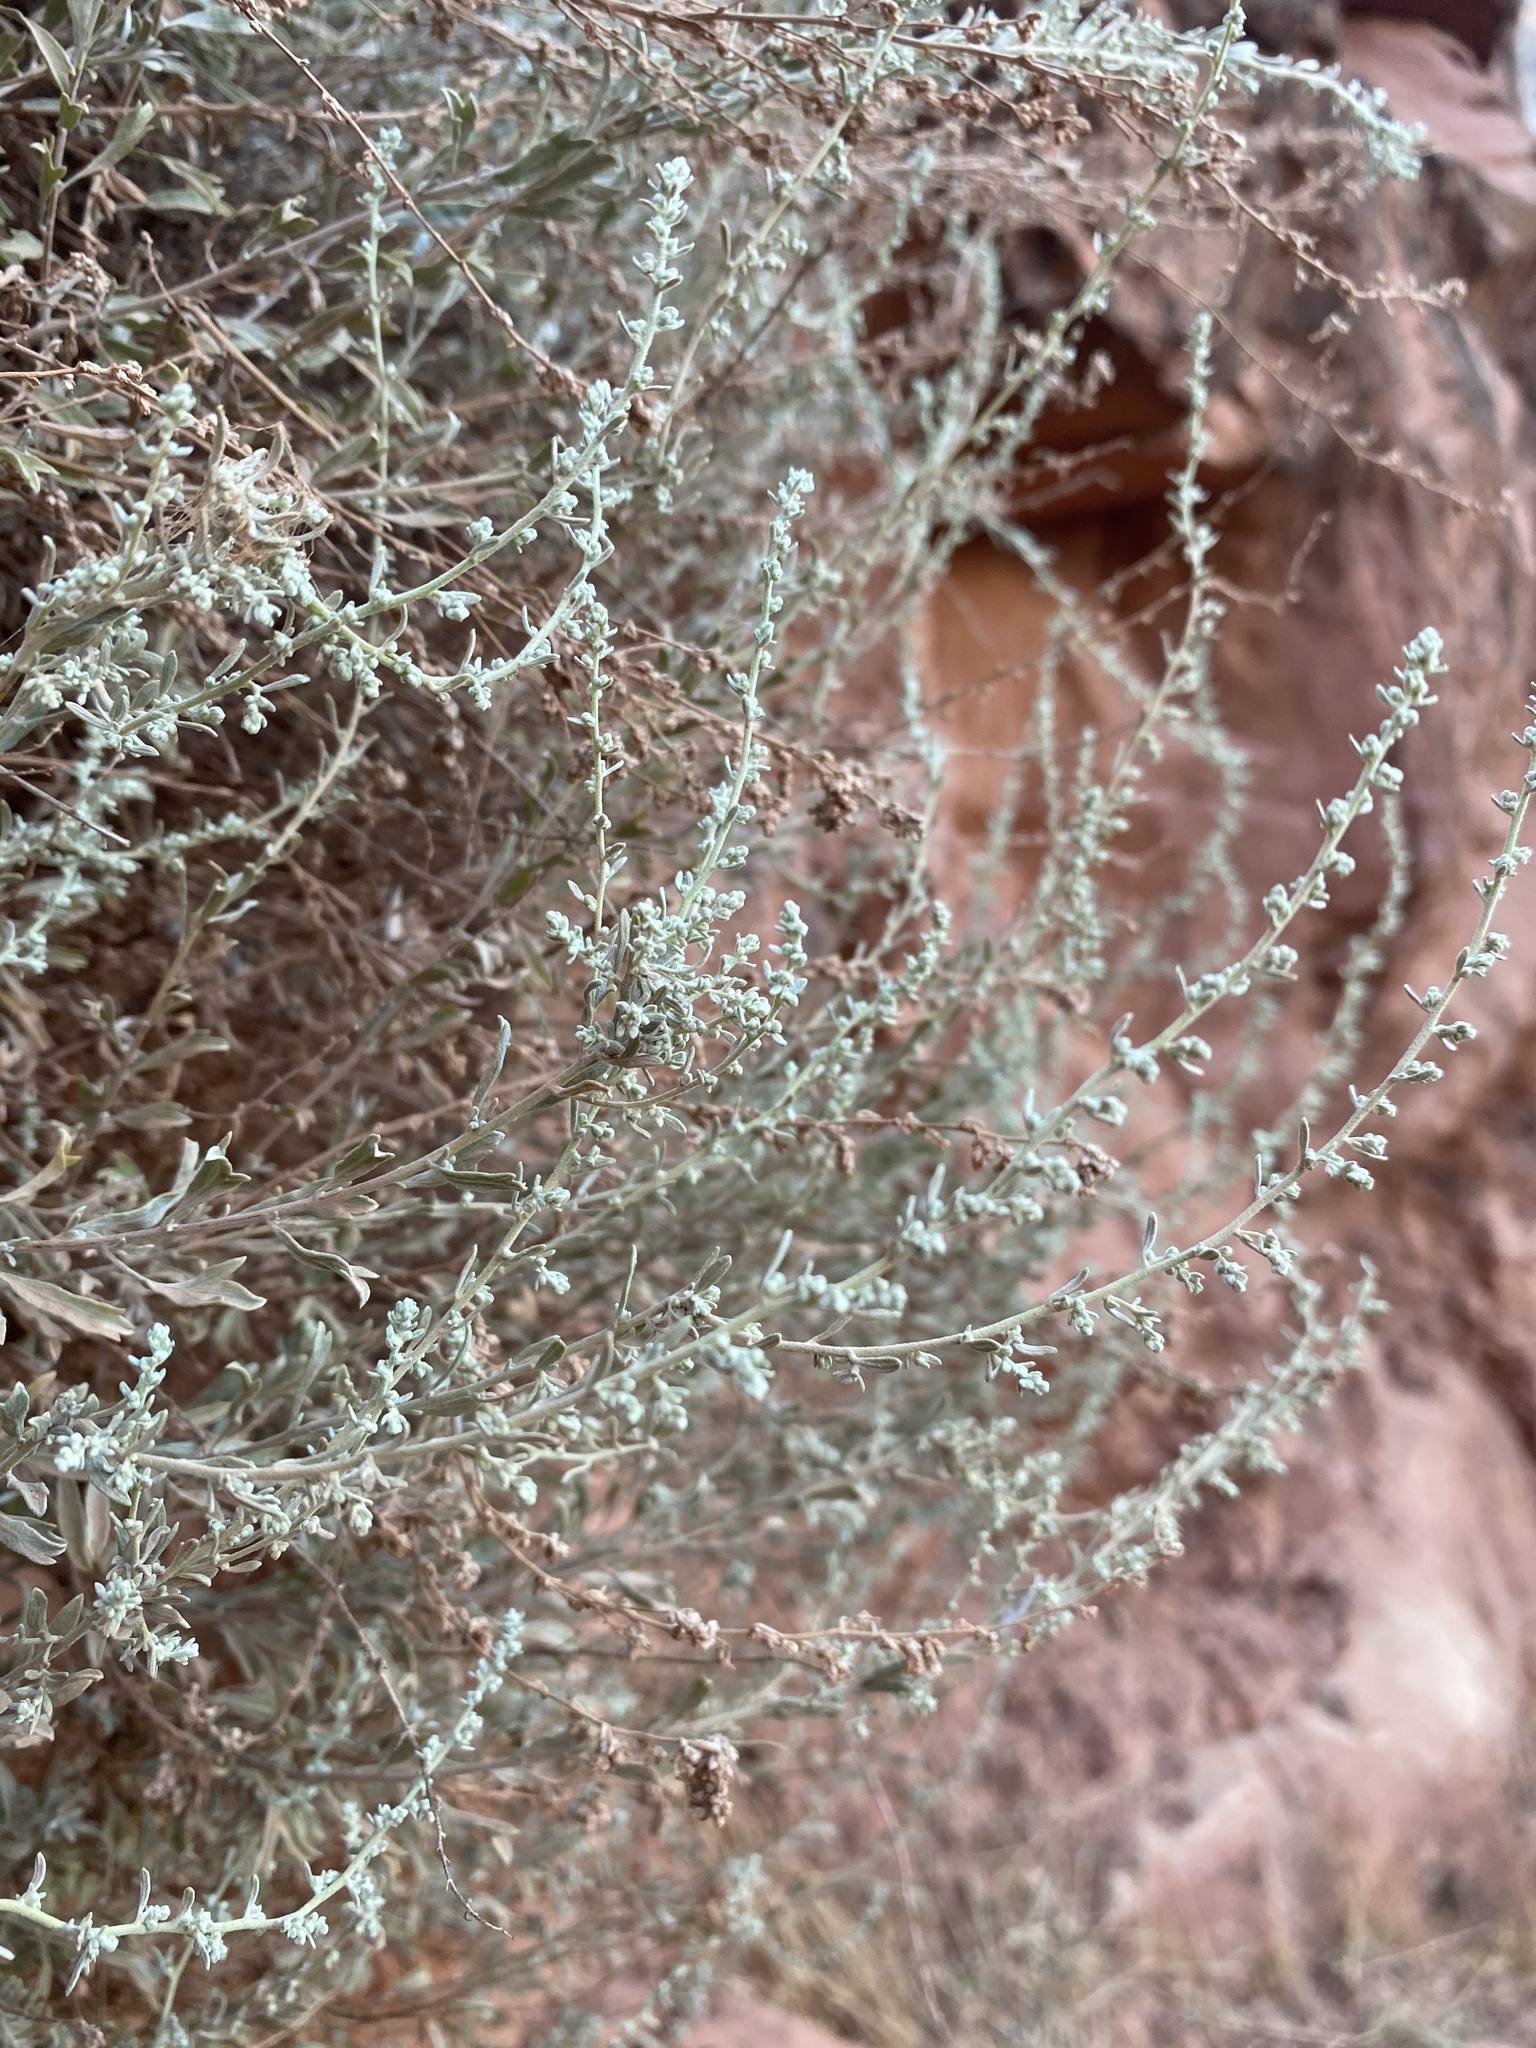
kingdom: Plantae
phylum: Tracheophyta
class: Magnoliopsida
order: Asterales
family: Asteraceae
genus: Artemisia
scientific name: Artemisia bigelovii
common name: Bigelow sagebrush
